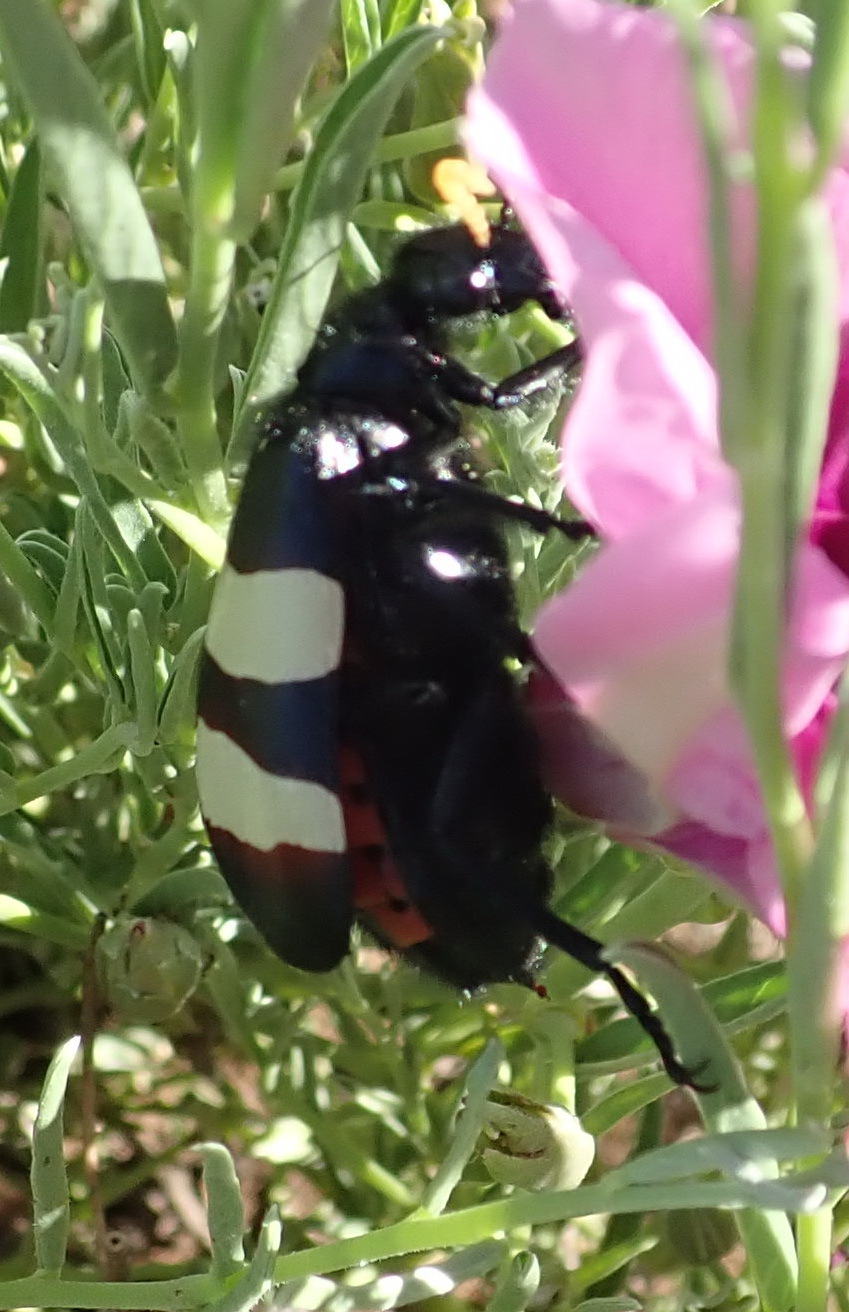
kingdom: Animalia
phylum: Arthropoda
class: Insecta
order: Coleoptera
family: Meloidae
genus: Hycleus
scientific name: Hycleus
